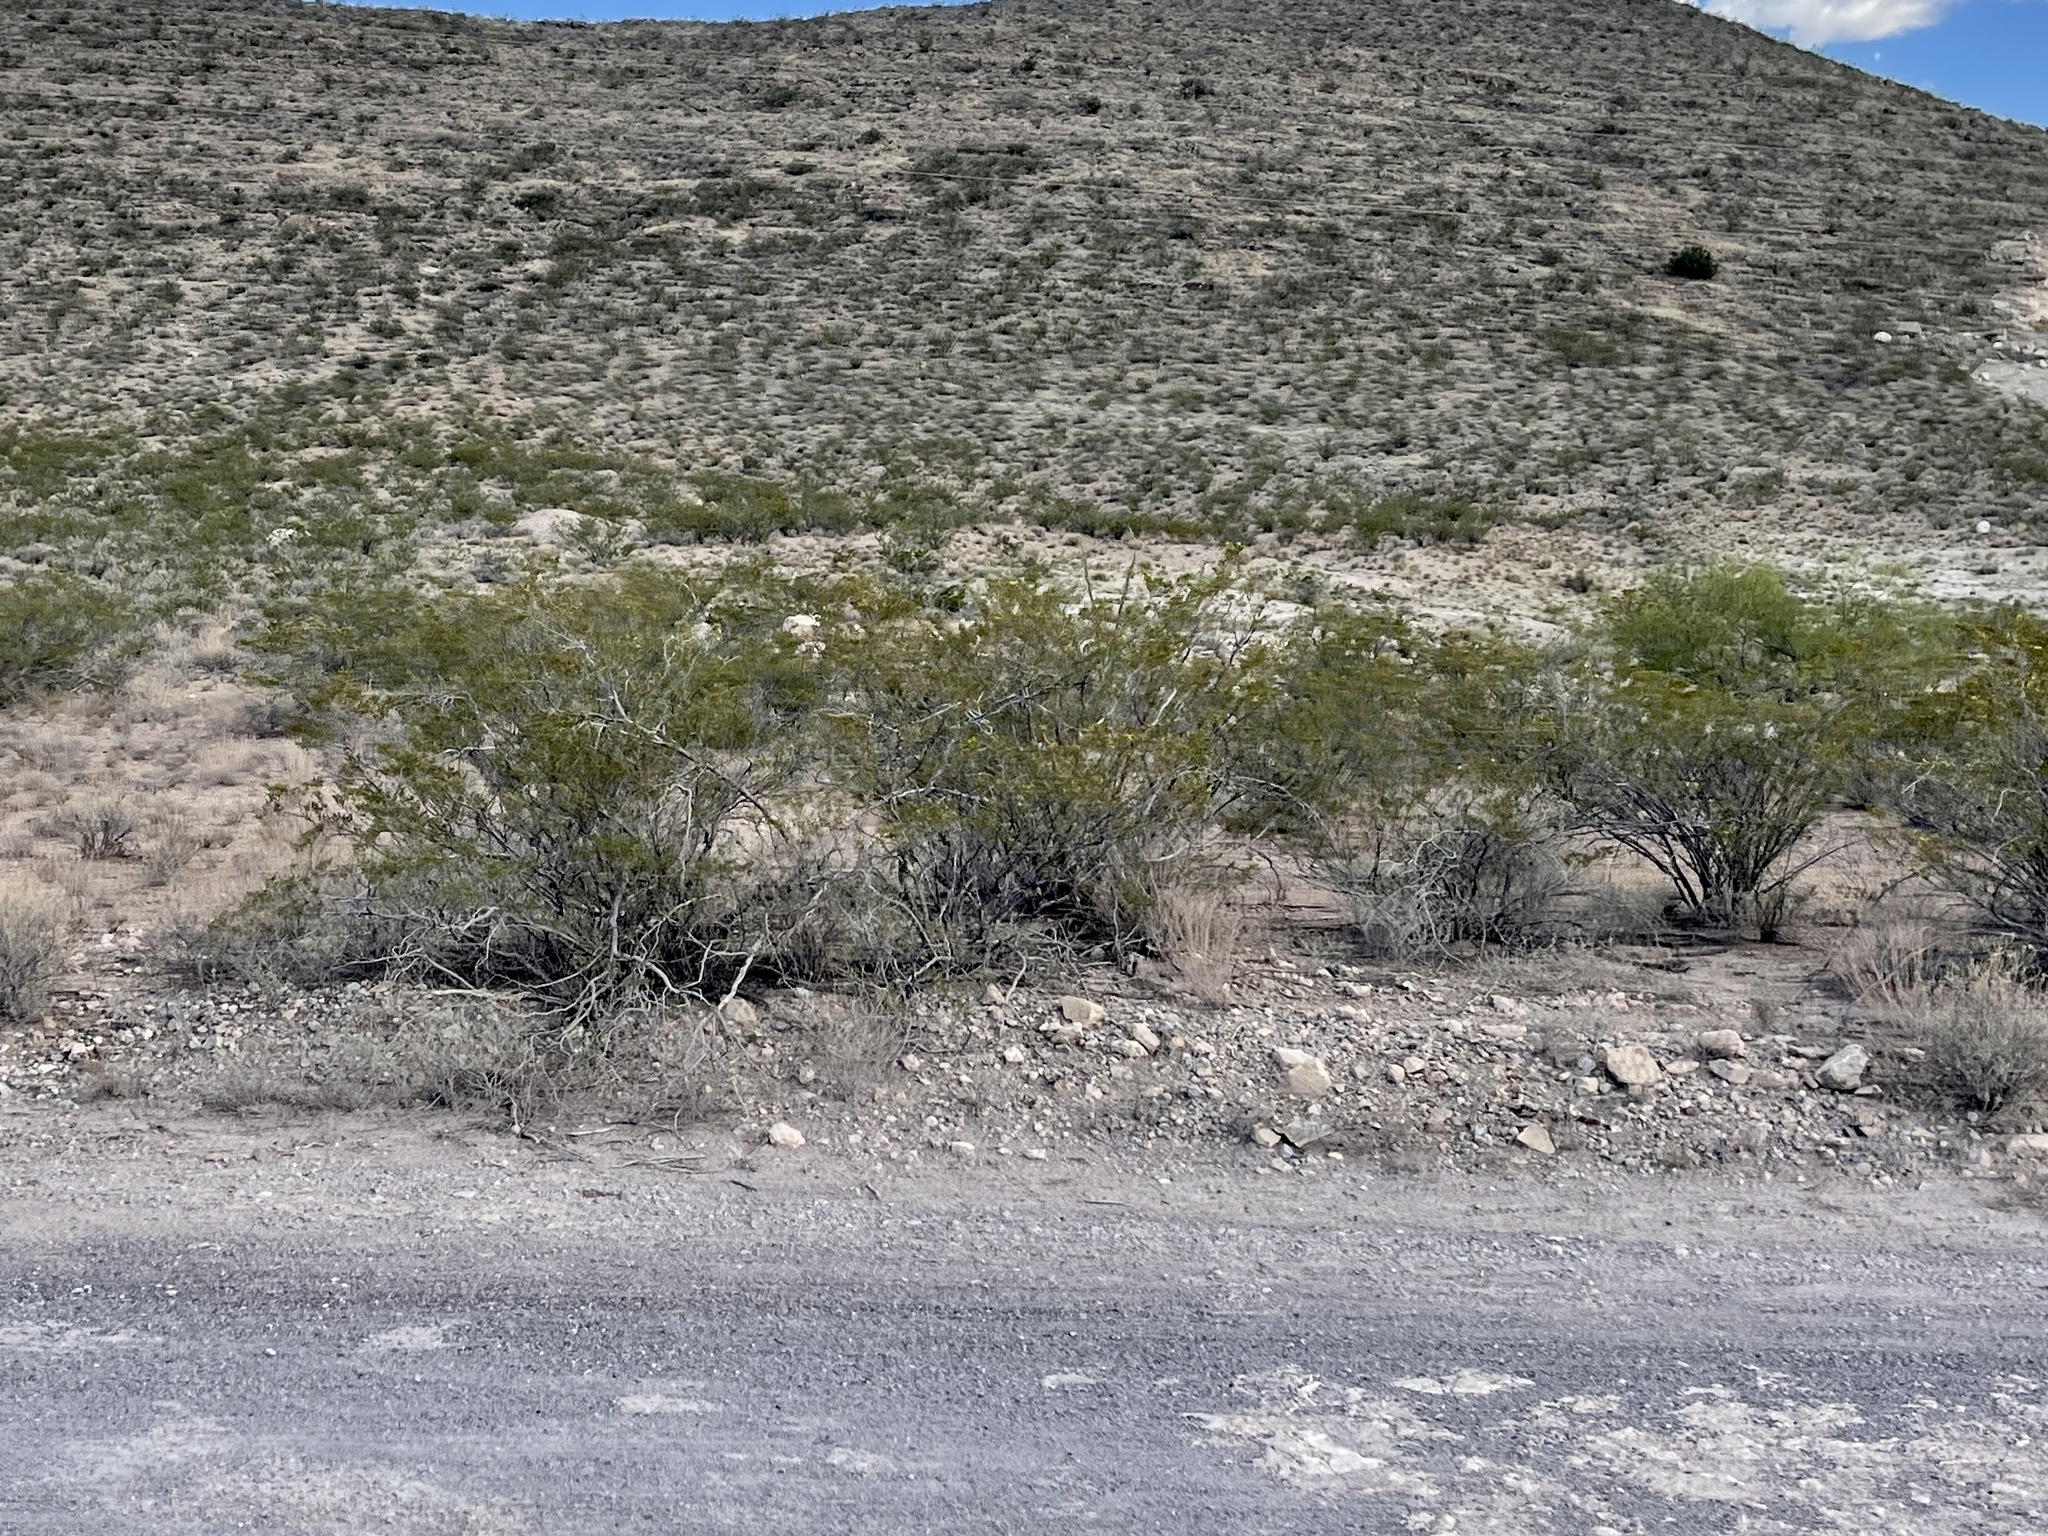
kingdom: Plantae
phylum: Tracheophyta
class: Magnoliopsida
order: Zygophyllales
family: Zygophyllaceae
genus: Larrea
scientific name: Larrea tridentata
